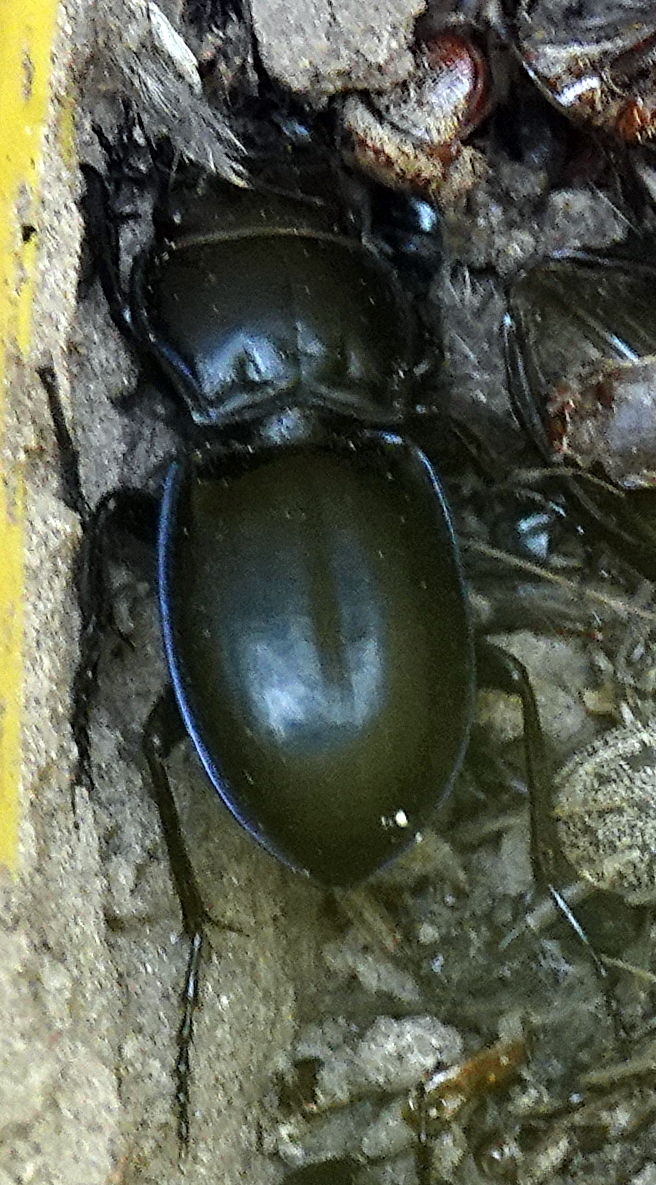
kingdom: Animalia
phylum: Arthropoda
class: Insecta
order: Coleoptera
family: Carabidae
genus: Pasimachus
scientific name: Pasimachus elongatus
